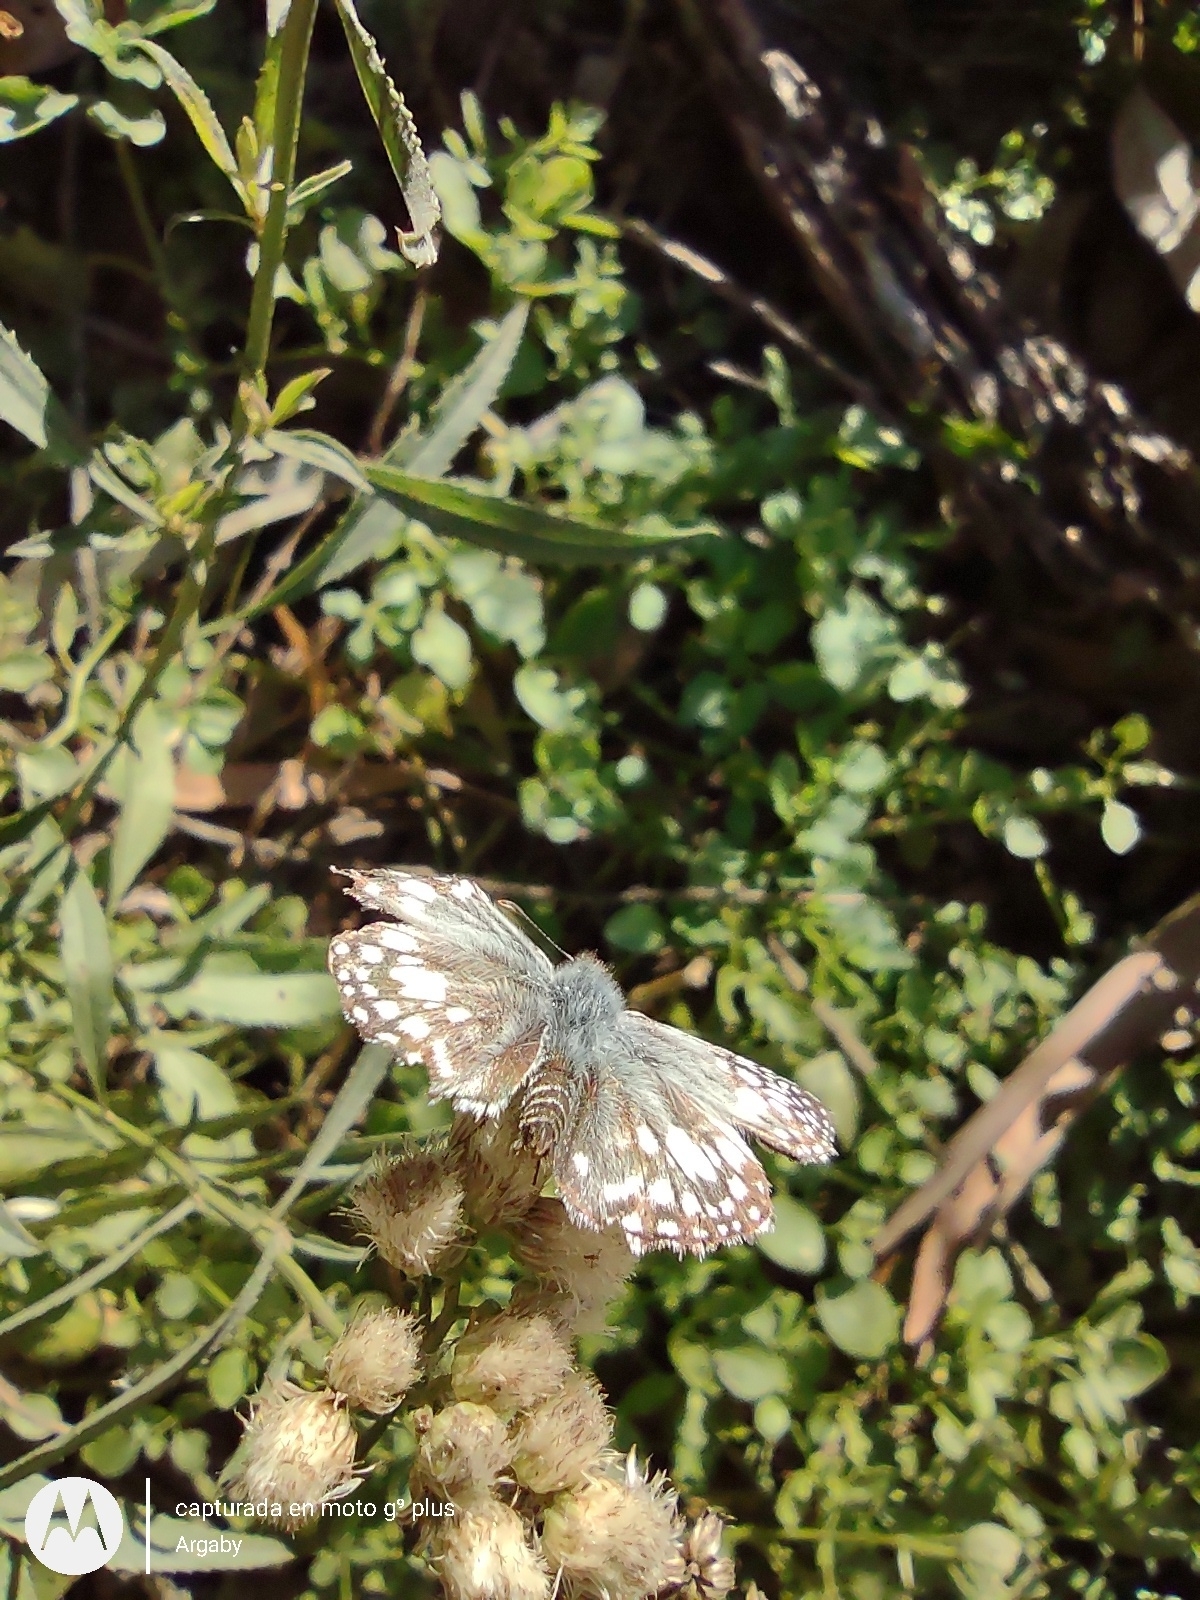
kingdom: Animalia
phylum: Arthropoda
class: Insecta
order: Lepidoptera
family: Hesperiidae
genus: Pyrgus
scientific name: Pyrgus oileus
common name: Tropical checkered-skipper
